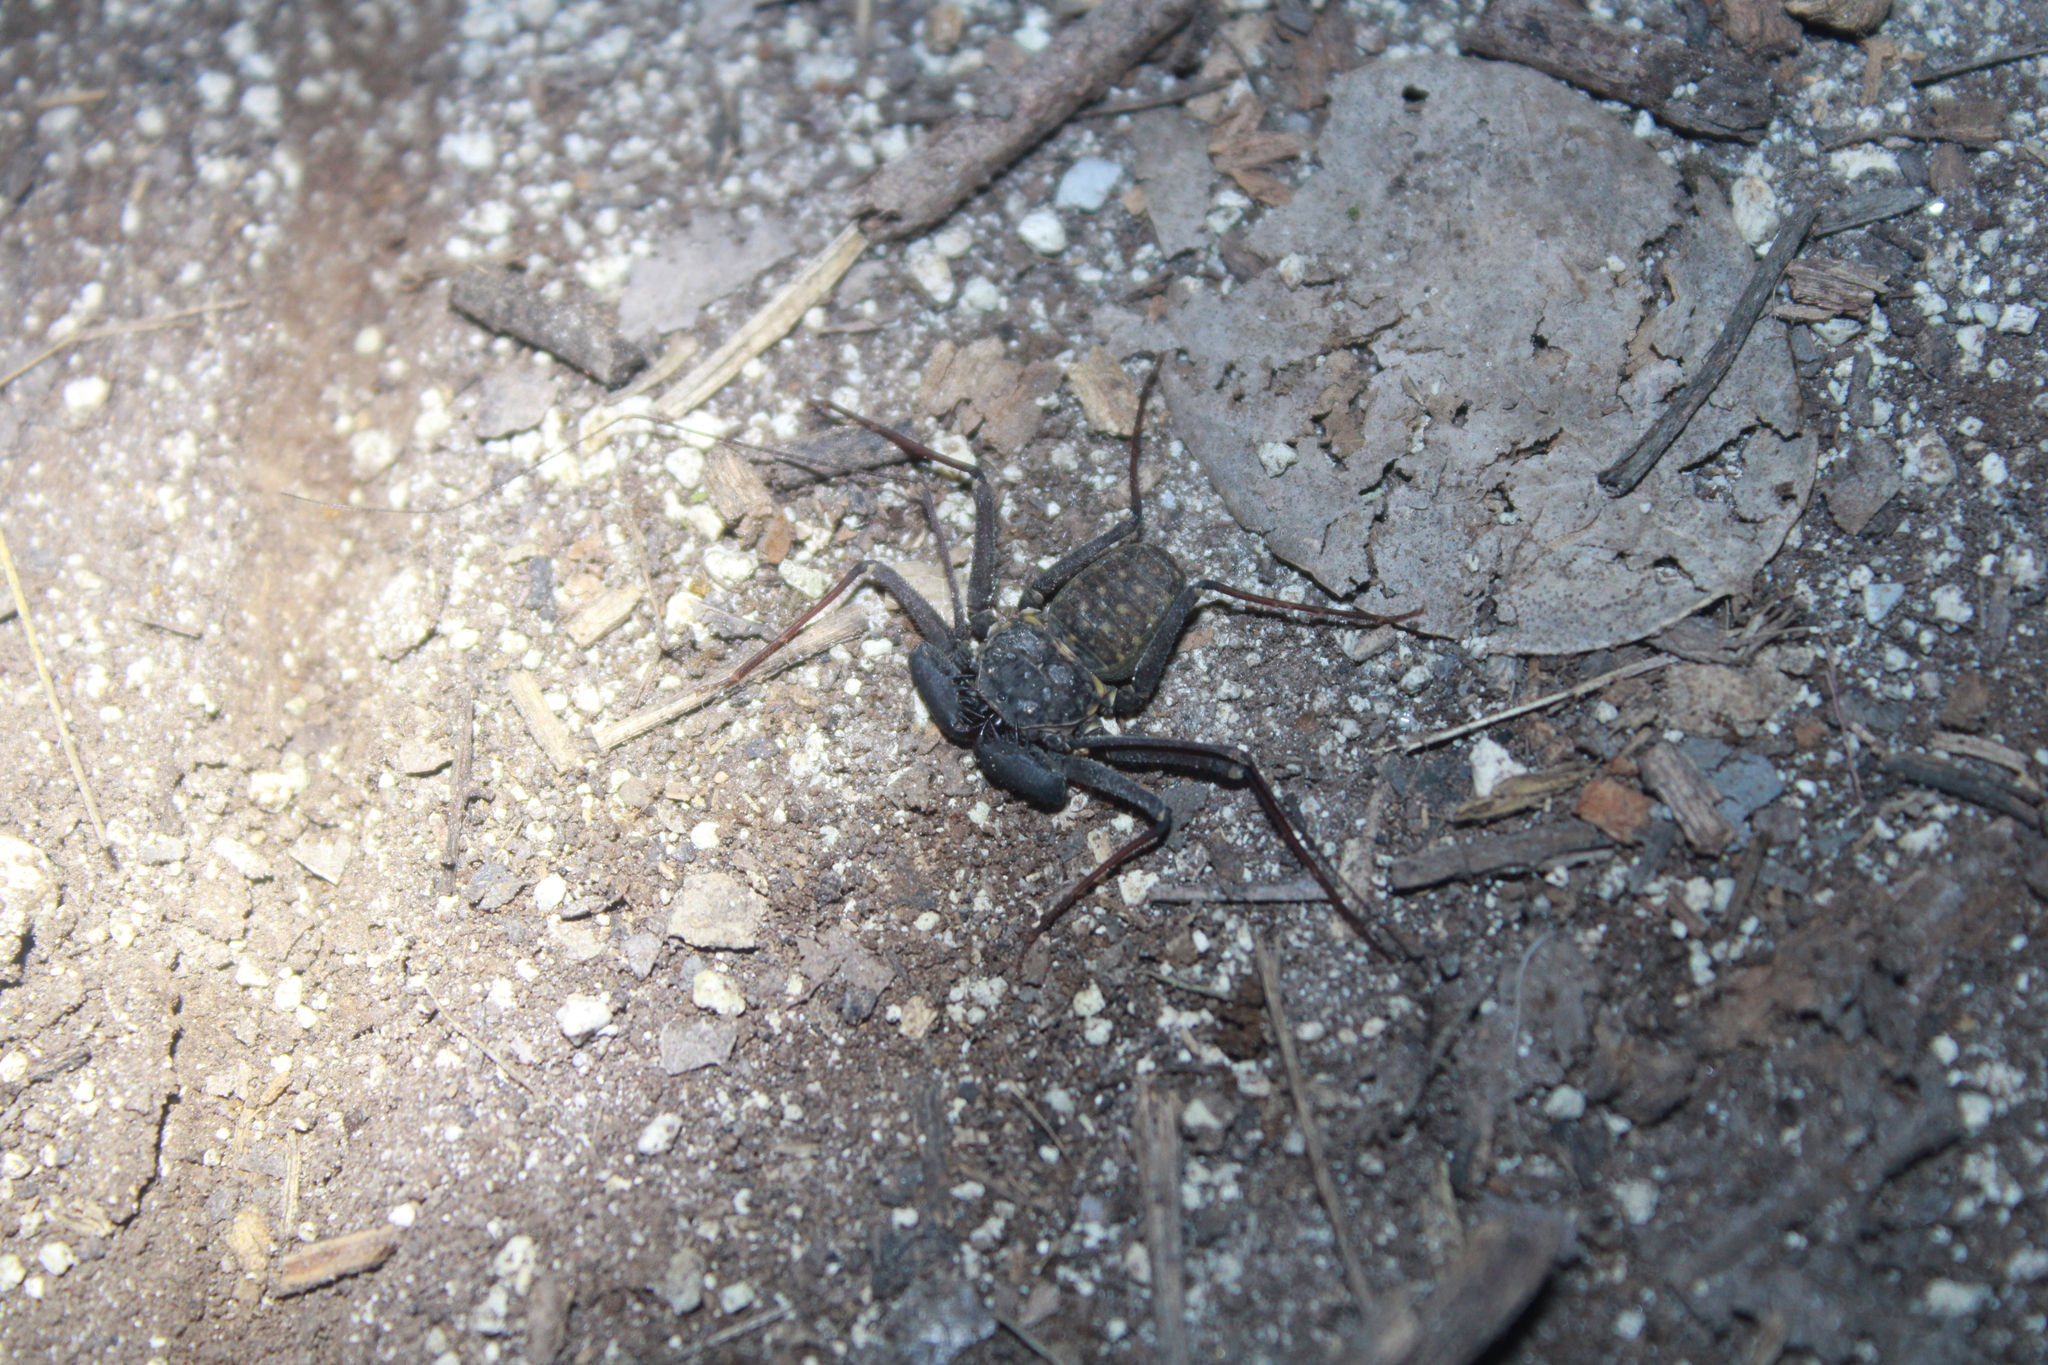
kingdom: Animalia
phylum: Arthropoda
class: Arachnida
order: Amblypygi
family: Phrynidae
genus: Phrynus
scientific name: Phrynus marginemaculatus
